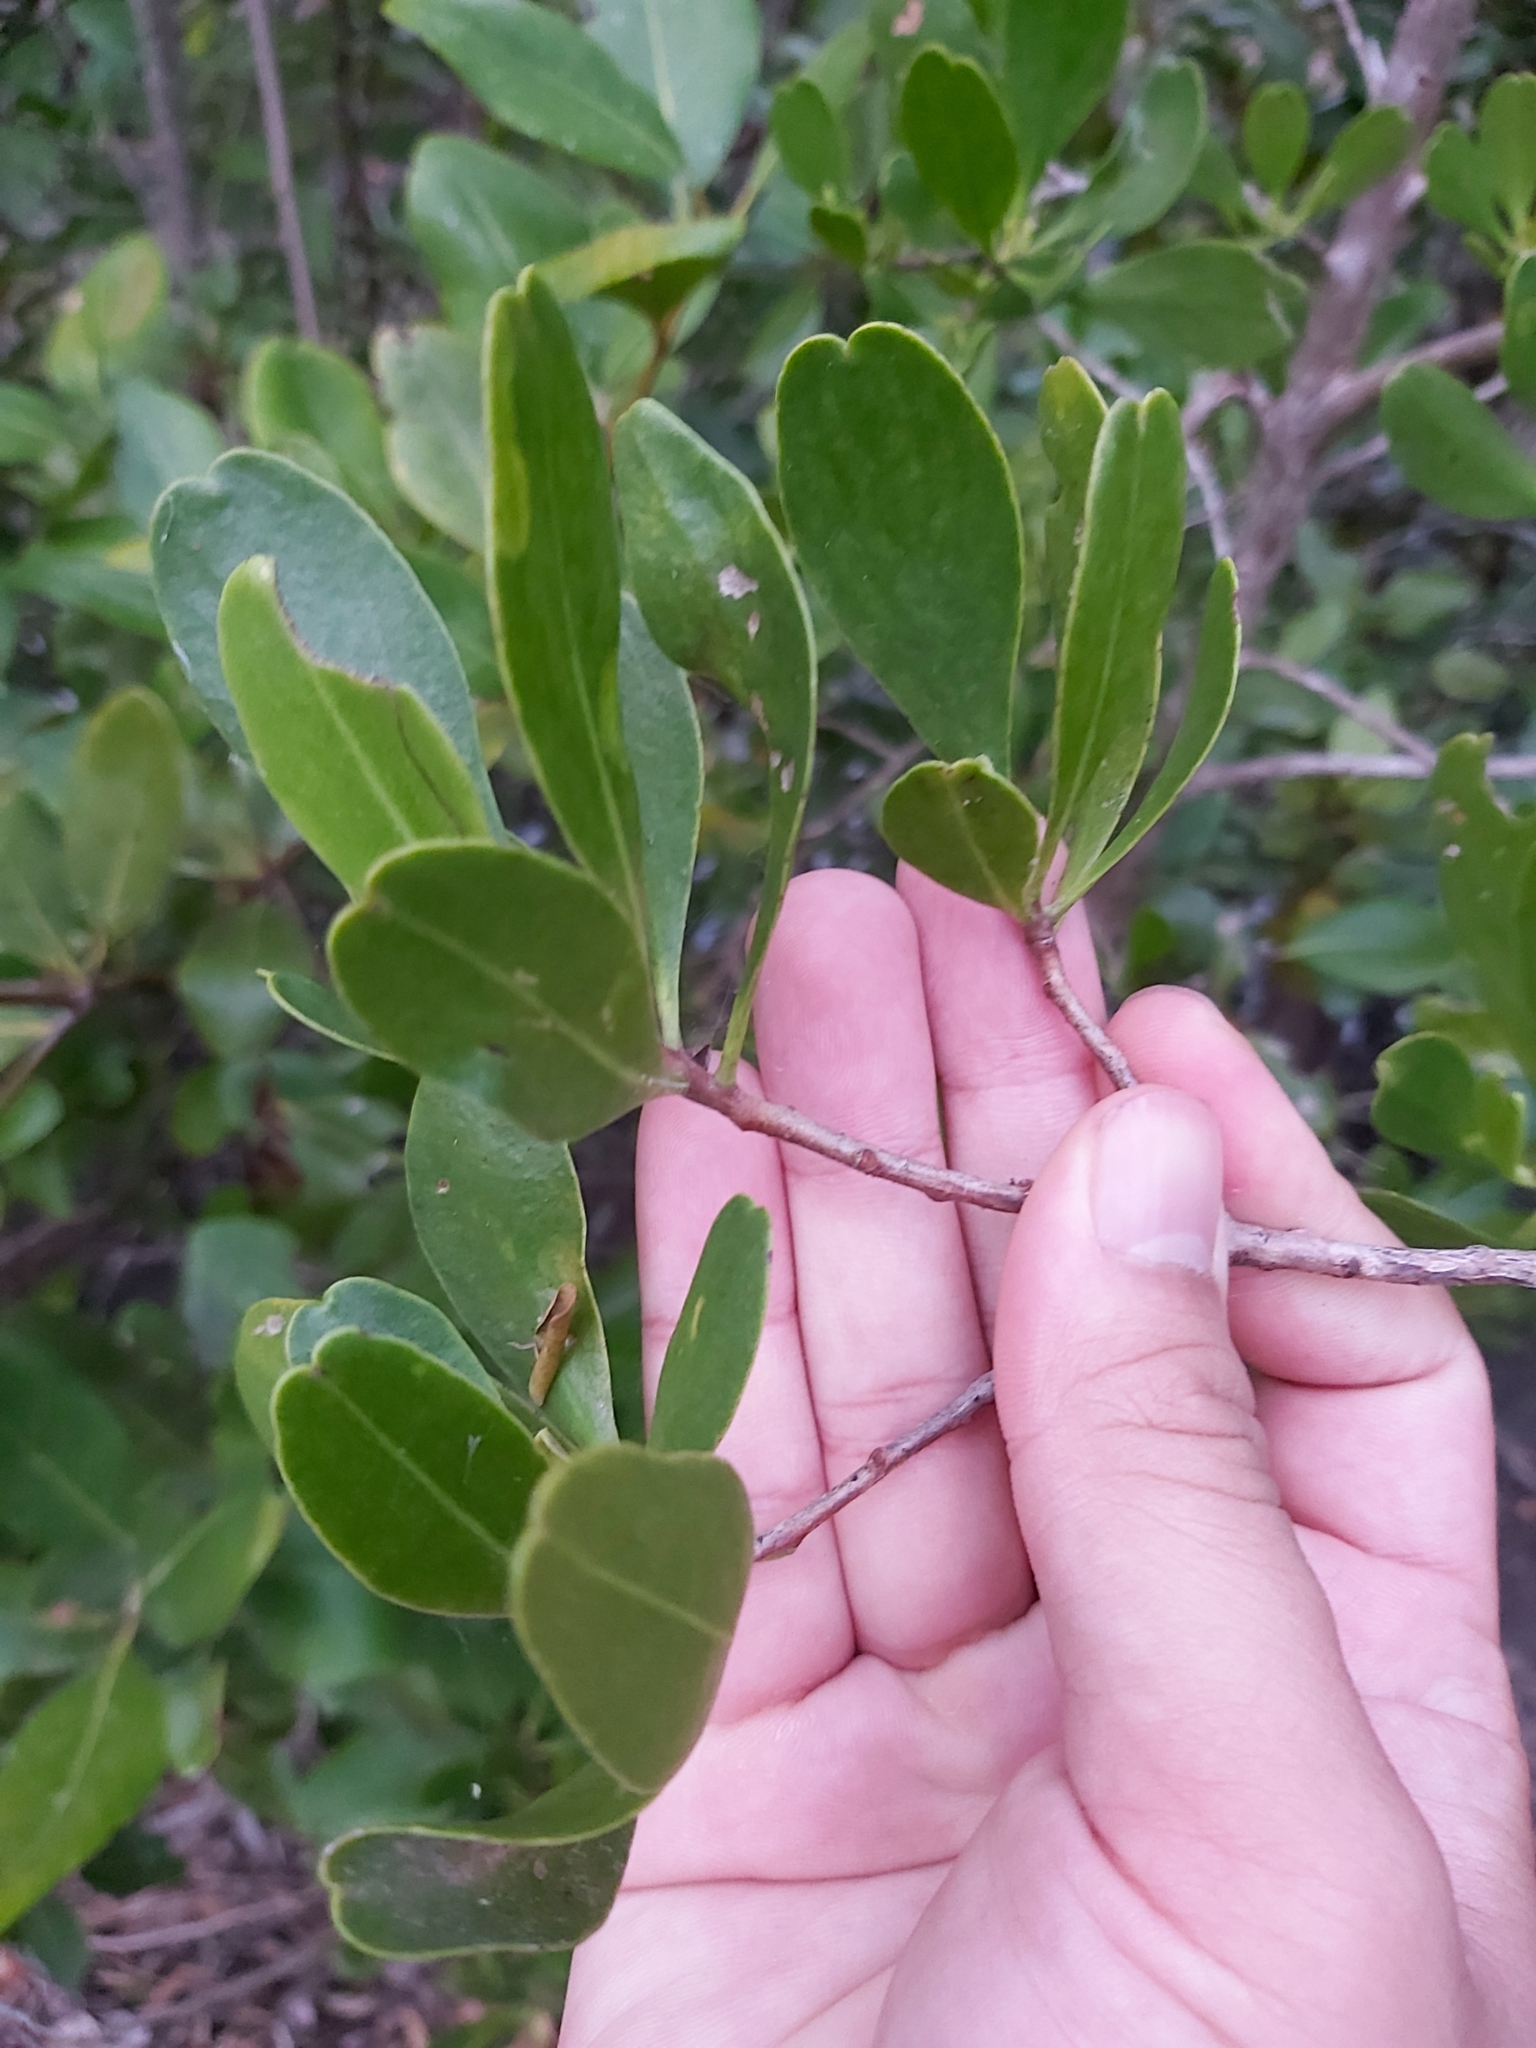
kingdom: Plantae
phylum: Tracheophyta
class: Magnoliopsida
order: Myrtales
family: Combretaceae
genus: Lumnitzera
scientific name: Lumnitzera littorea
